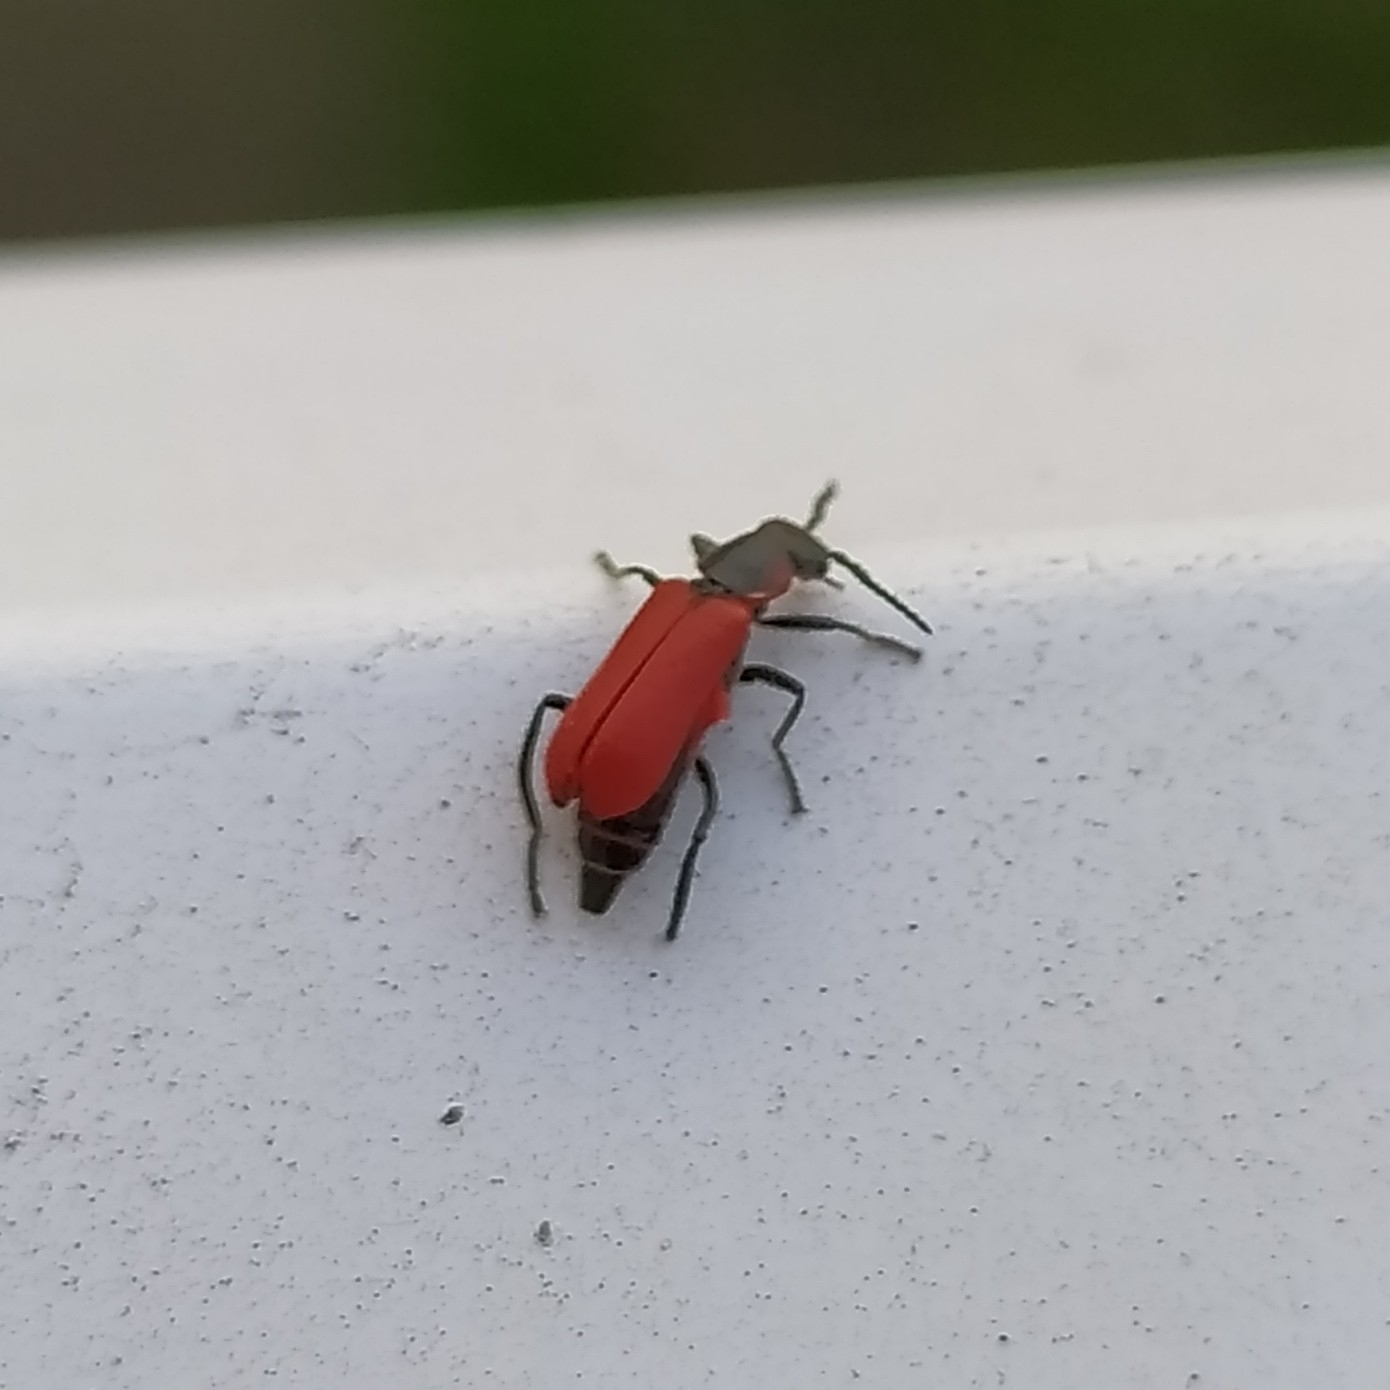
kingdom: Animalia
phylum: Arthropoda
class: Insecta
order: Coleoptera
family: Melyridae
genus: Anthocomus
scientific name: Anthocomus rufus
